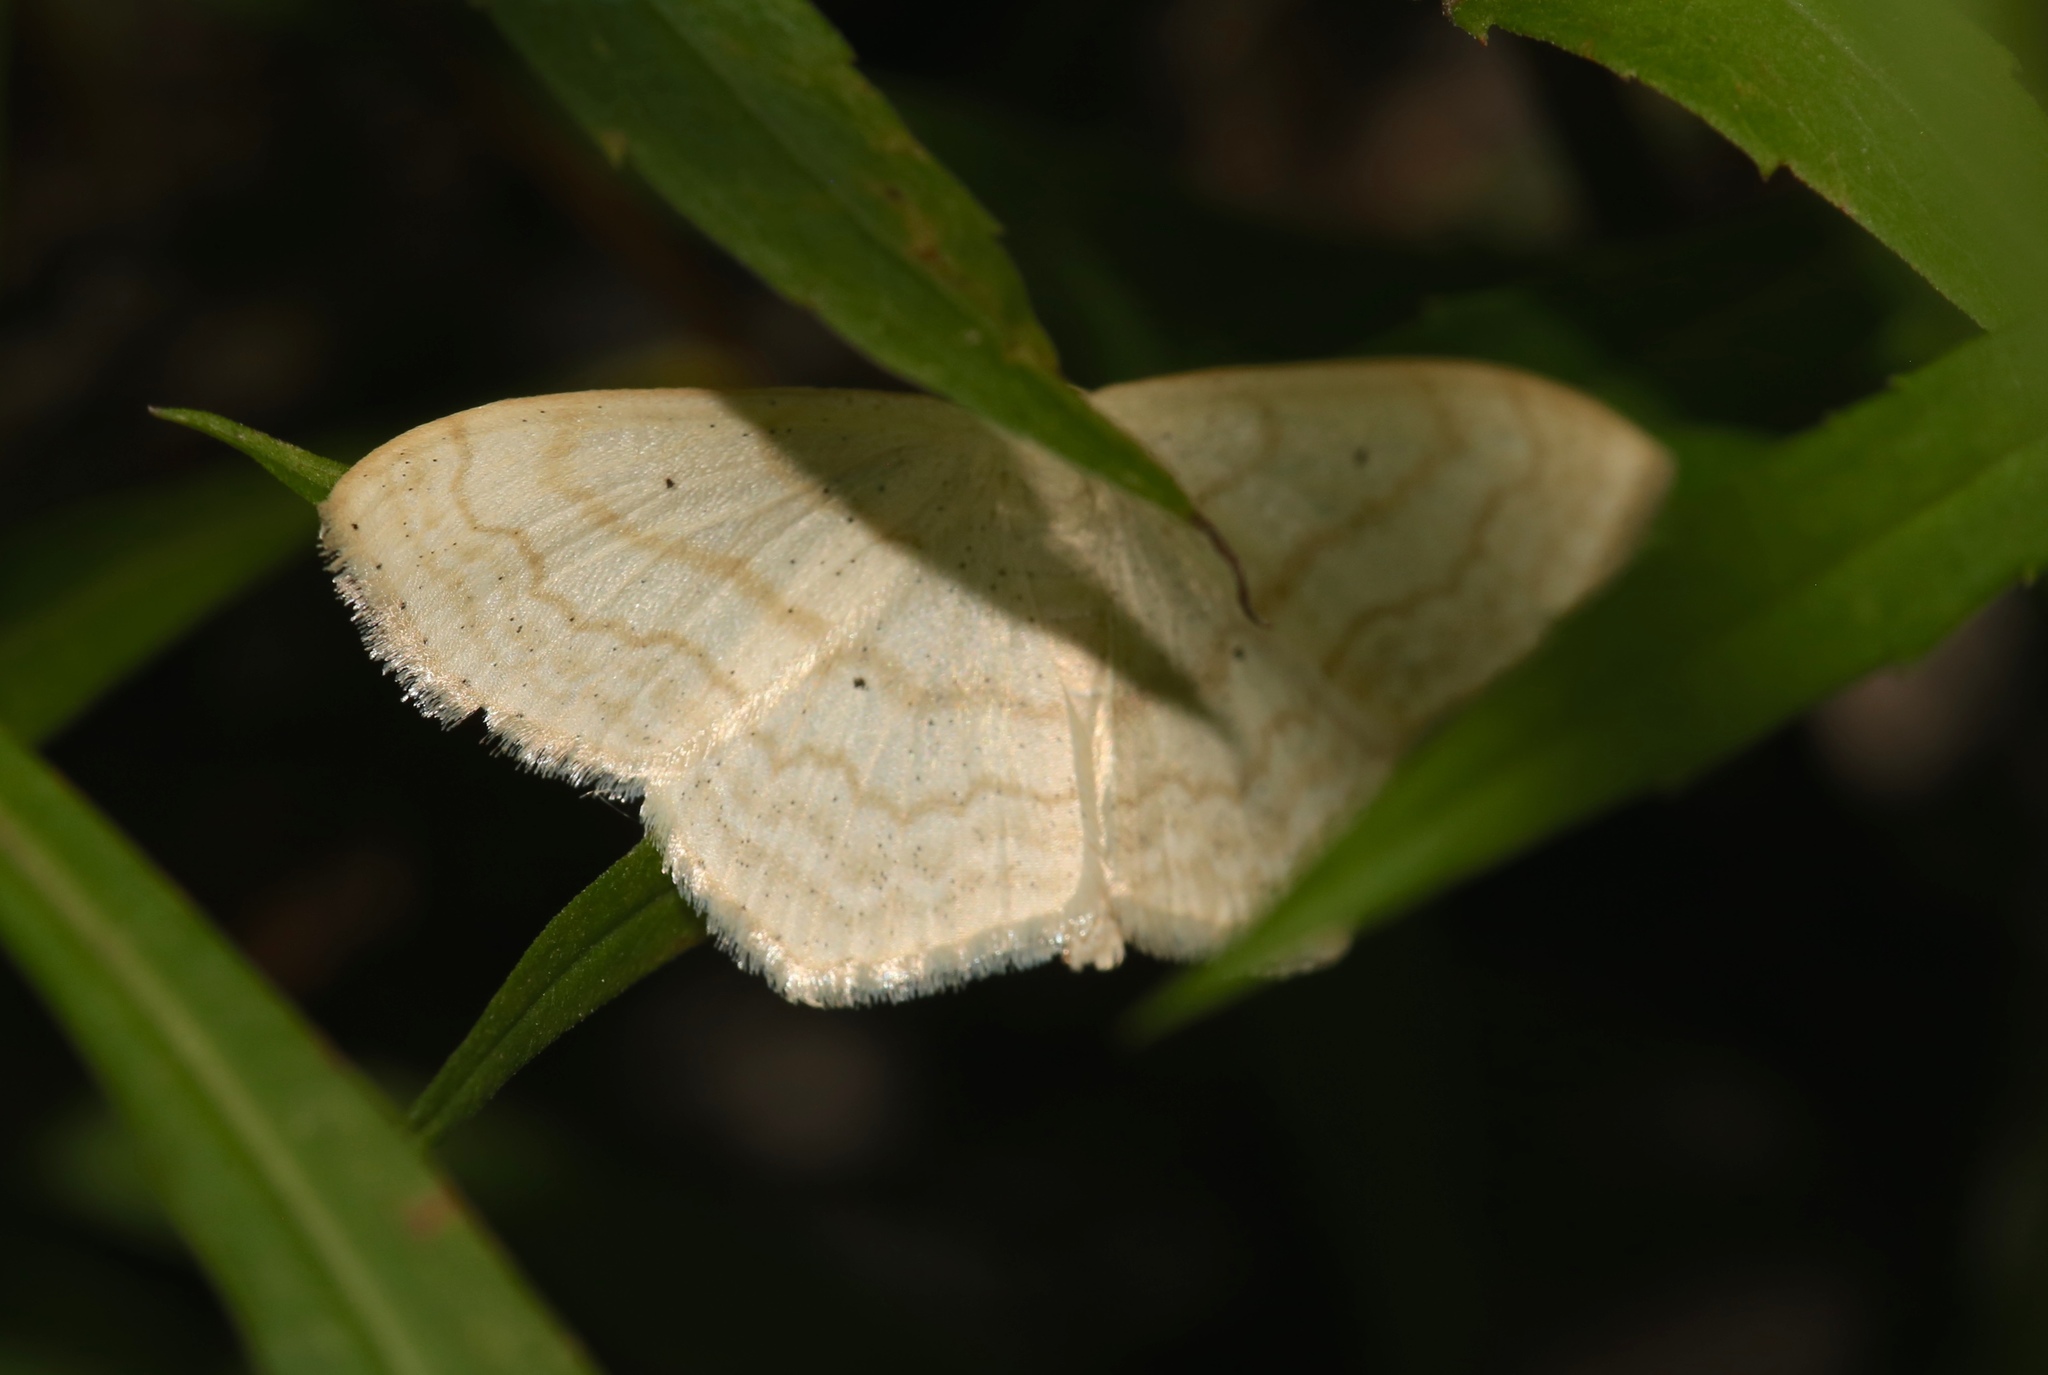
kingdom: Animalia
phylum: Arthropoda
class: Insecta
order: Lepidoptera
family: Geometridae
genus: Scopula
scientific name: Scopula limboundata
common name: Large lace border
